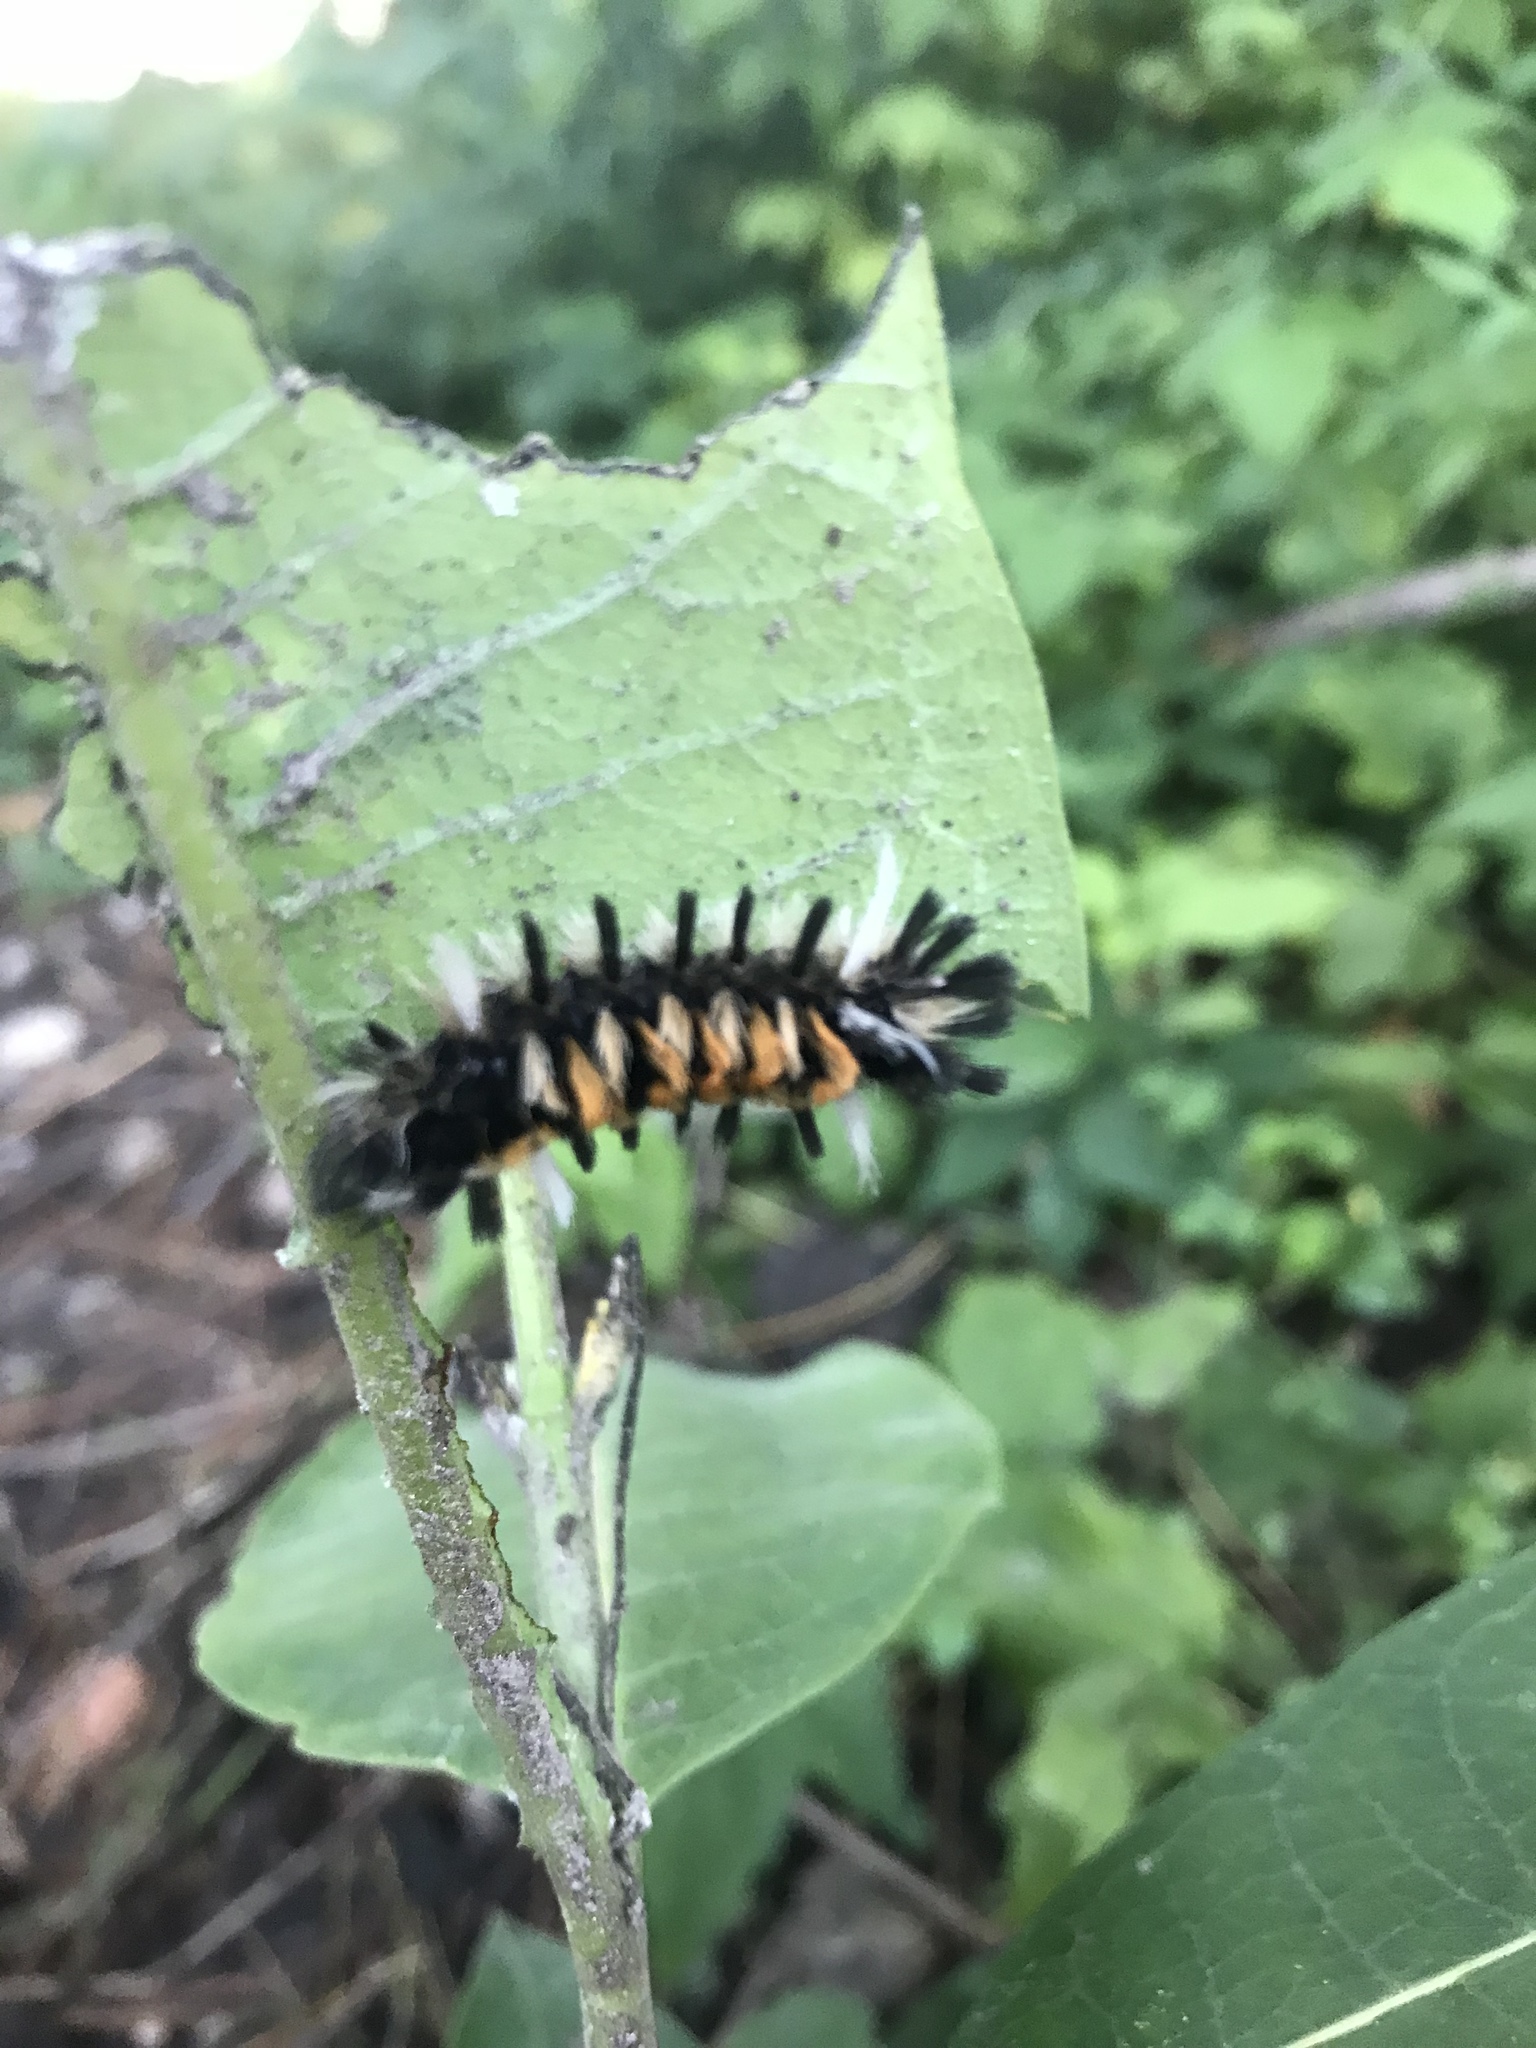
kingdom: Animalia
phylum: Arthropoda
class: Insecta
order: Lepidoptera
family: Erebidae
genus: Euchaetes
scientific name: Euchaetes egle
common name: Milkweed tussock moth
